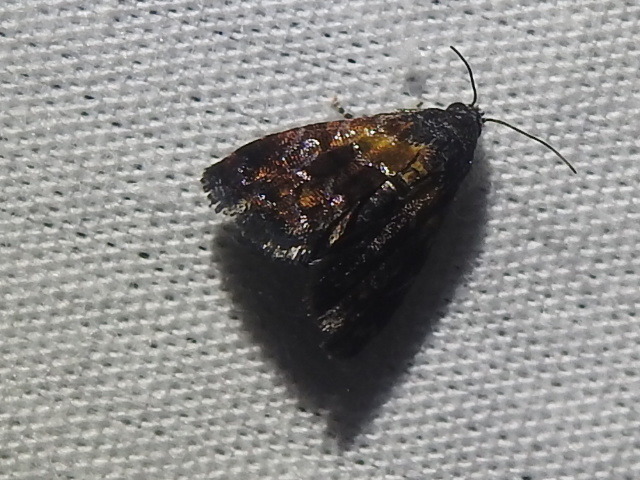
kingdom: Animalia
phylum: Arthropoda
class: Insecta
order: Lepidoptera
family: Noctuidae
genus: Tripudia
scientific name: Tripudia flavofasciata
